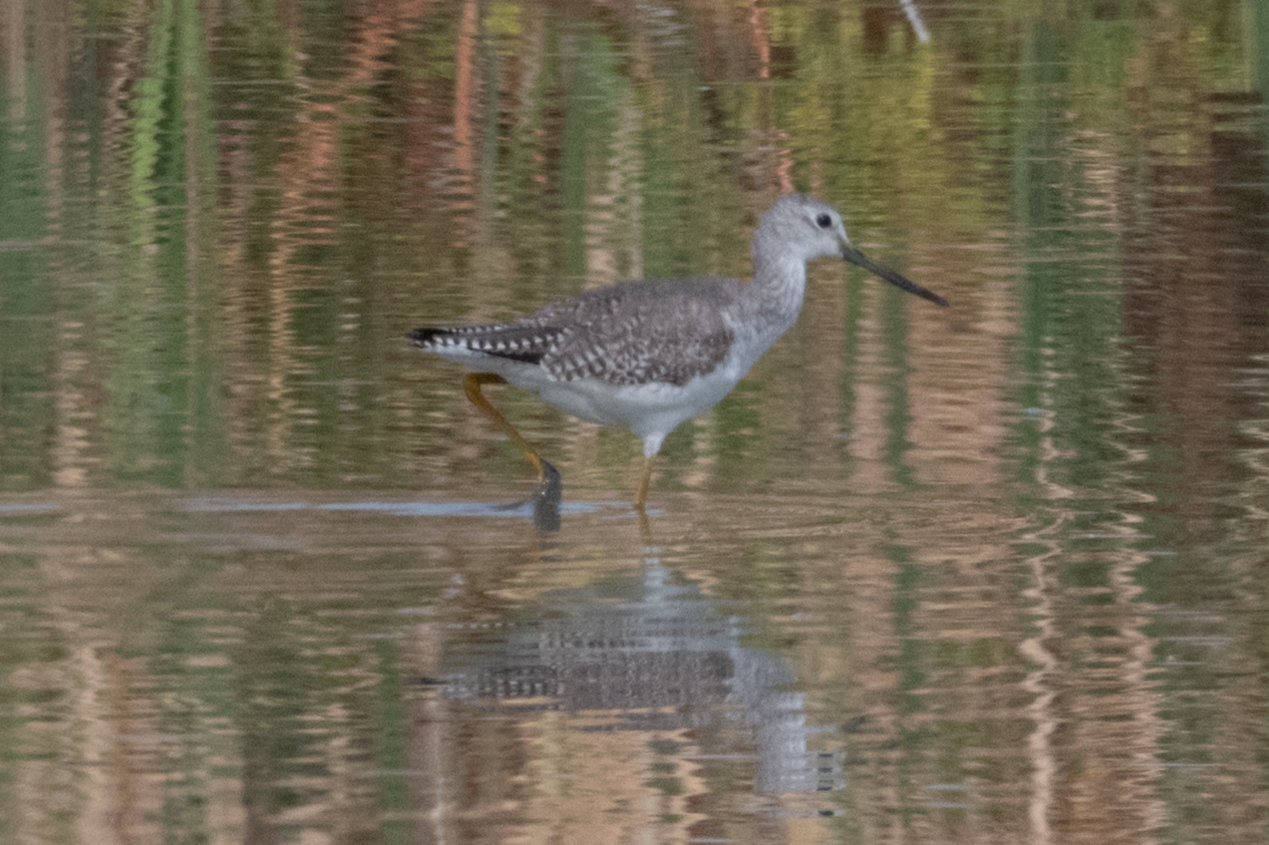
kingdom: Animalia
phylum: Chordata
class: Aves
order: Charadriiformes
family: Scolopacidae
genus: Tringa
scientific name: Tringa melanoleuca
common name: Greater yellowlegs
